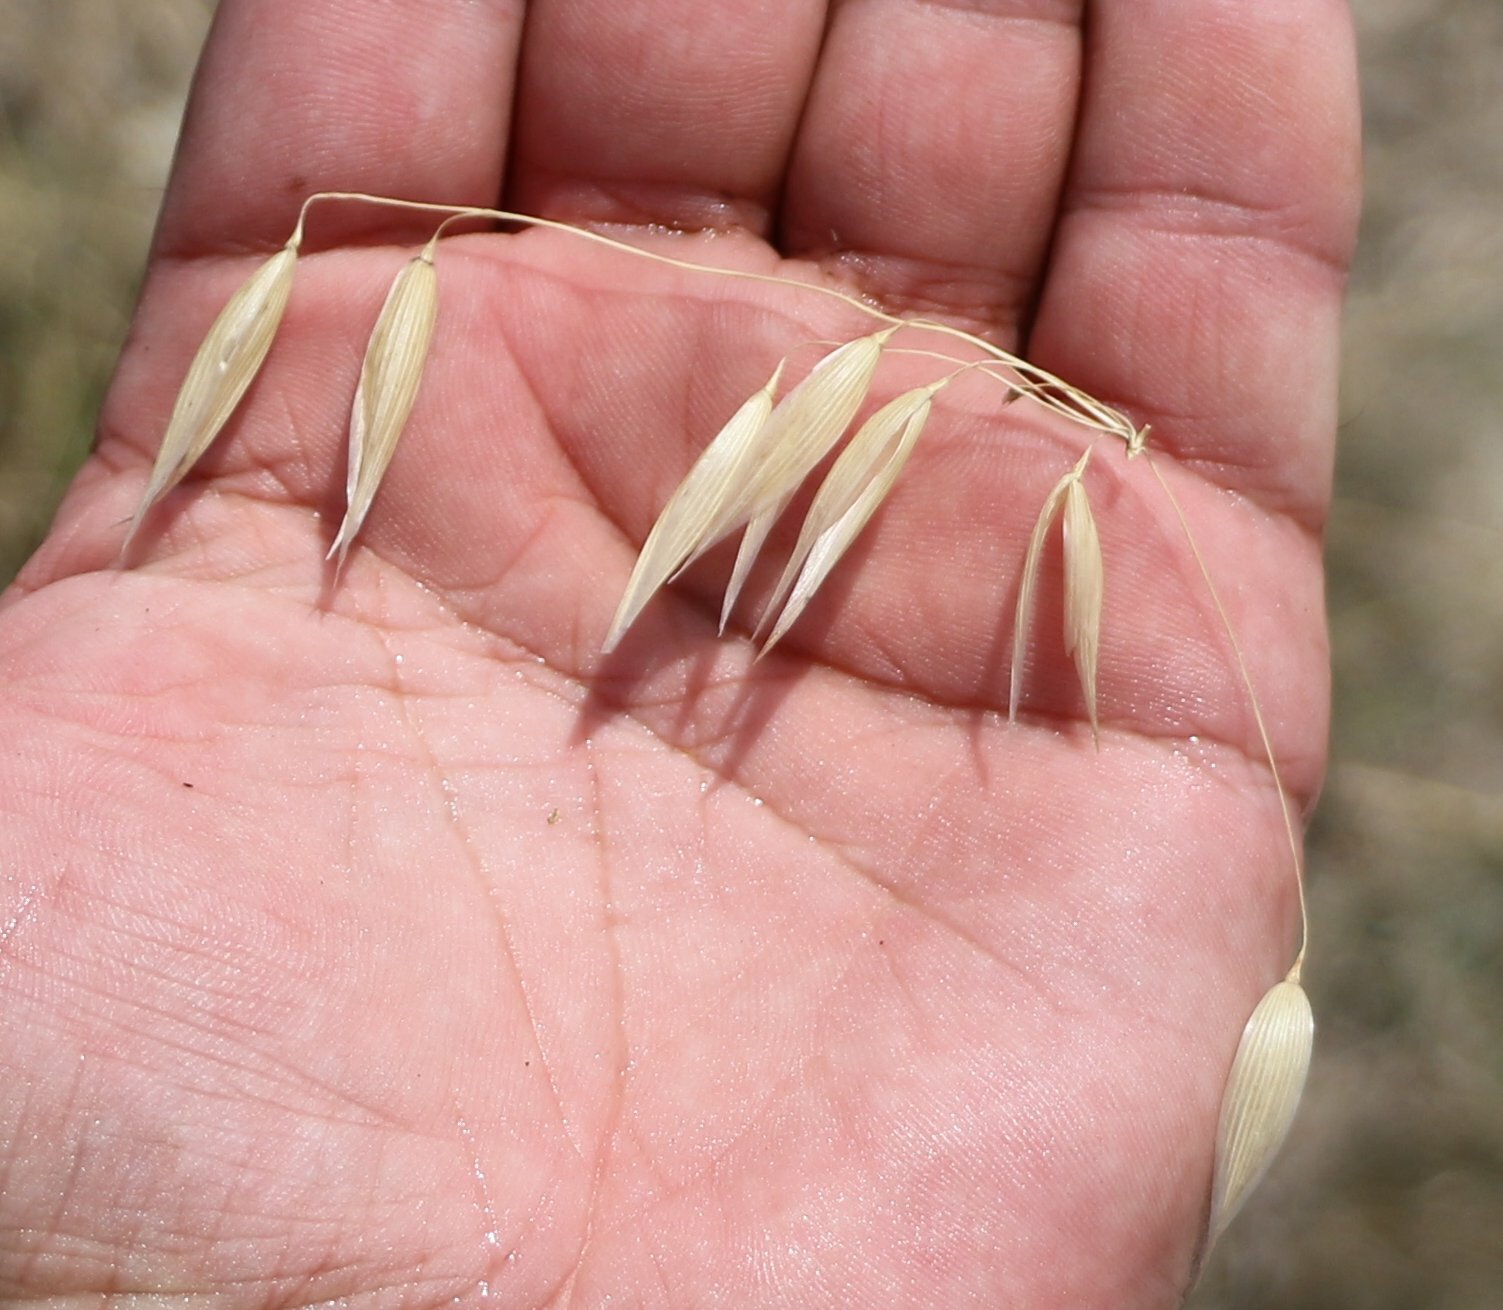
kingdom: Plantae
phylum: Tracheophyta
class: Liliopsida
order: Poales
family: Poaceae
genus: Avena
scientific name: Avena fatua
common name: Wild oat
